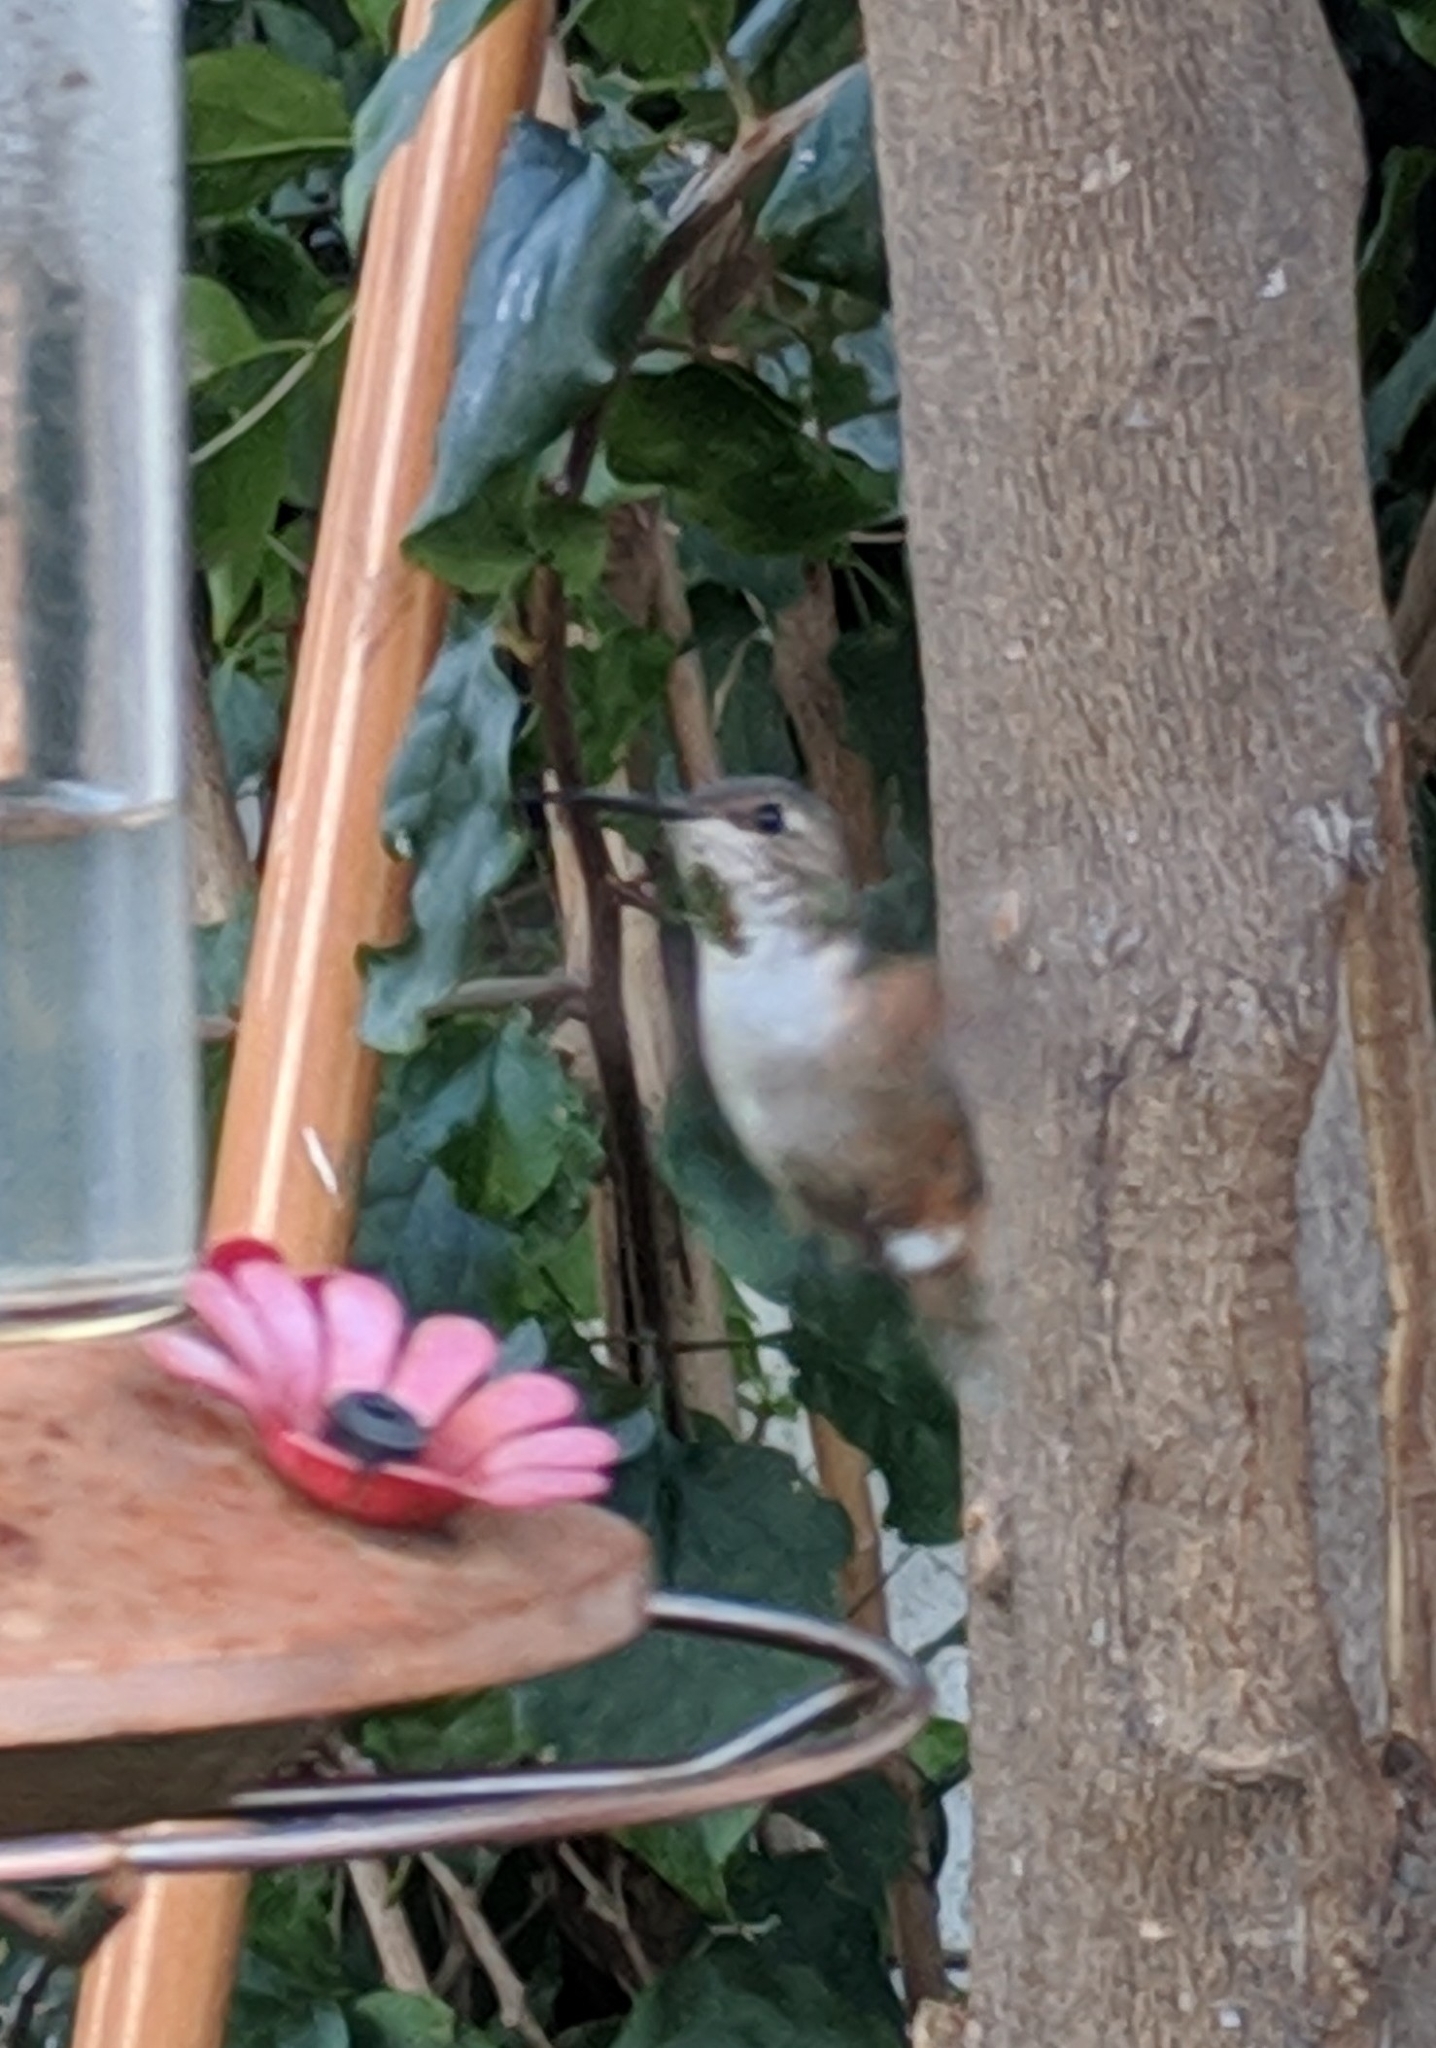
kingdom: Animalia
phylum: Chordata
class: Aves
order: Apodiformes
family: Trochilidae
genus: Selasphorus
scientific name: Selasphorus
